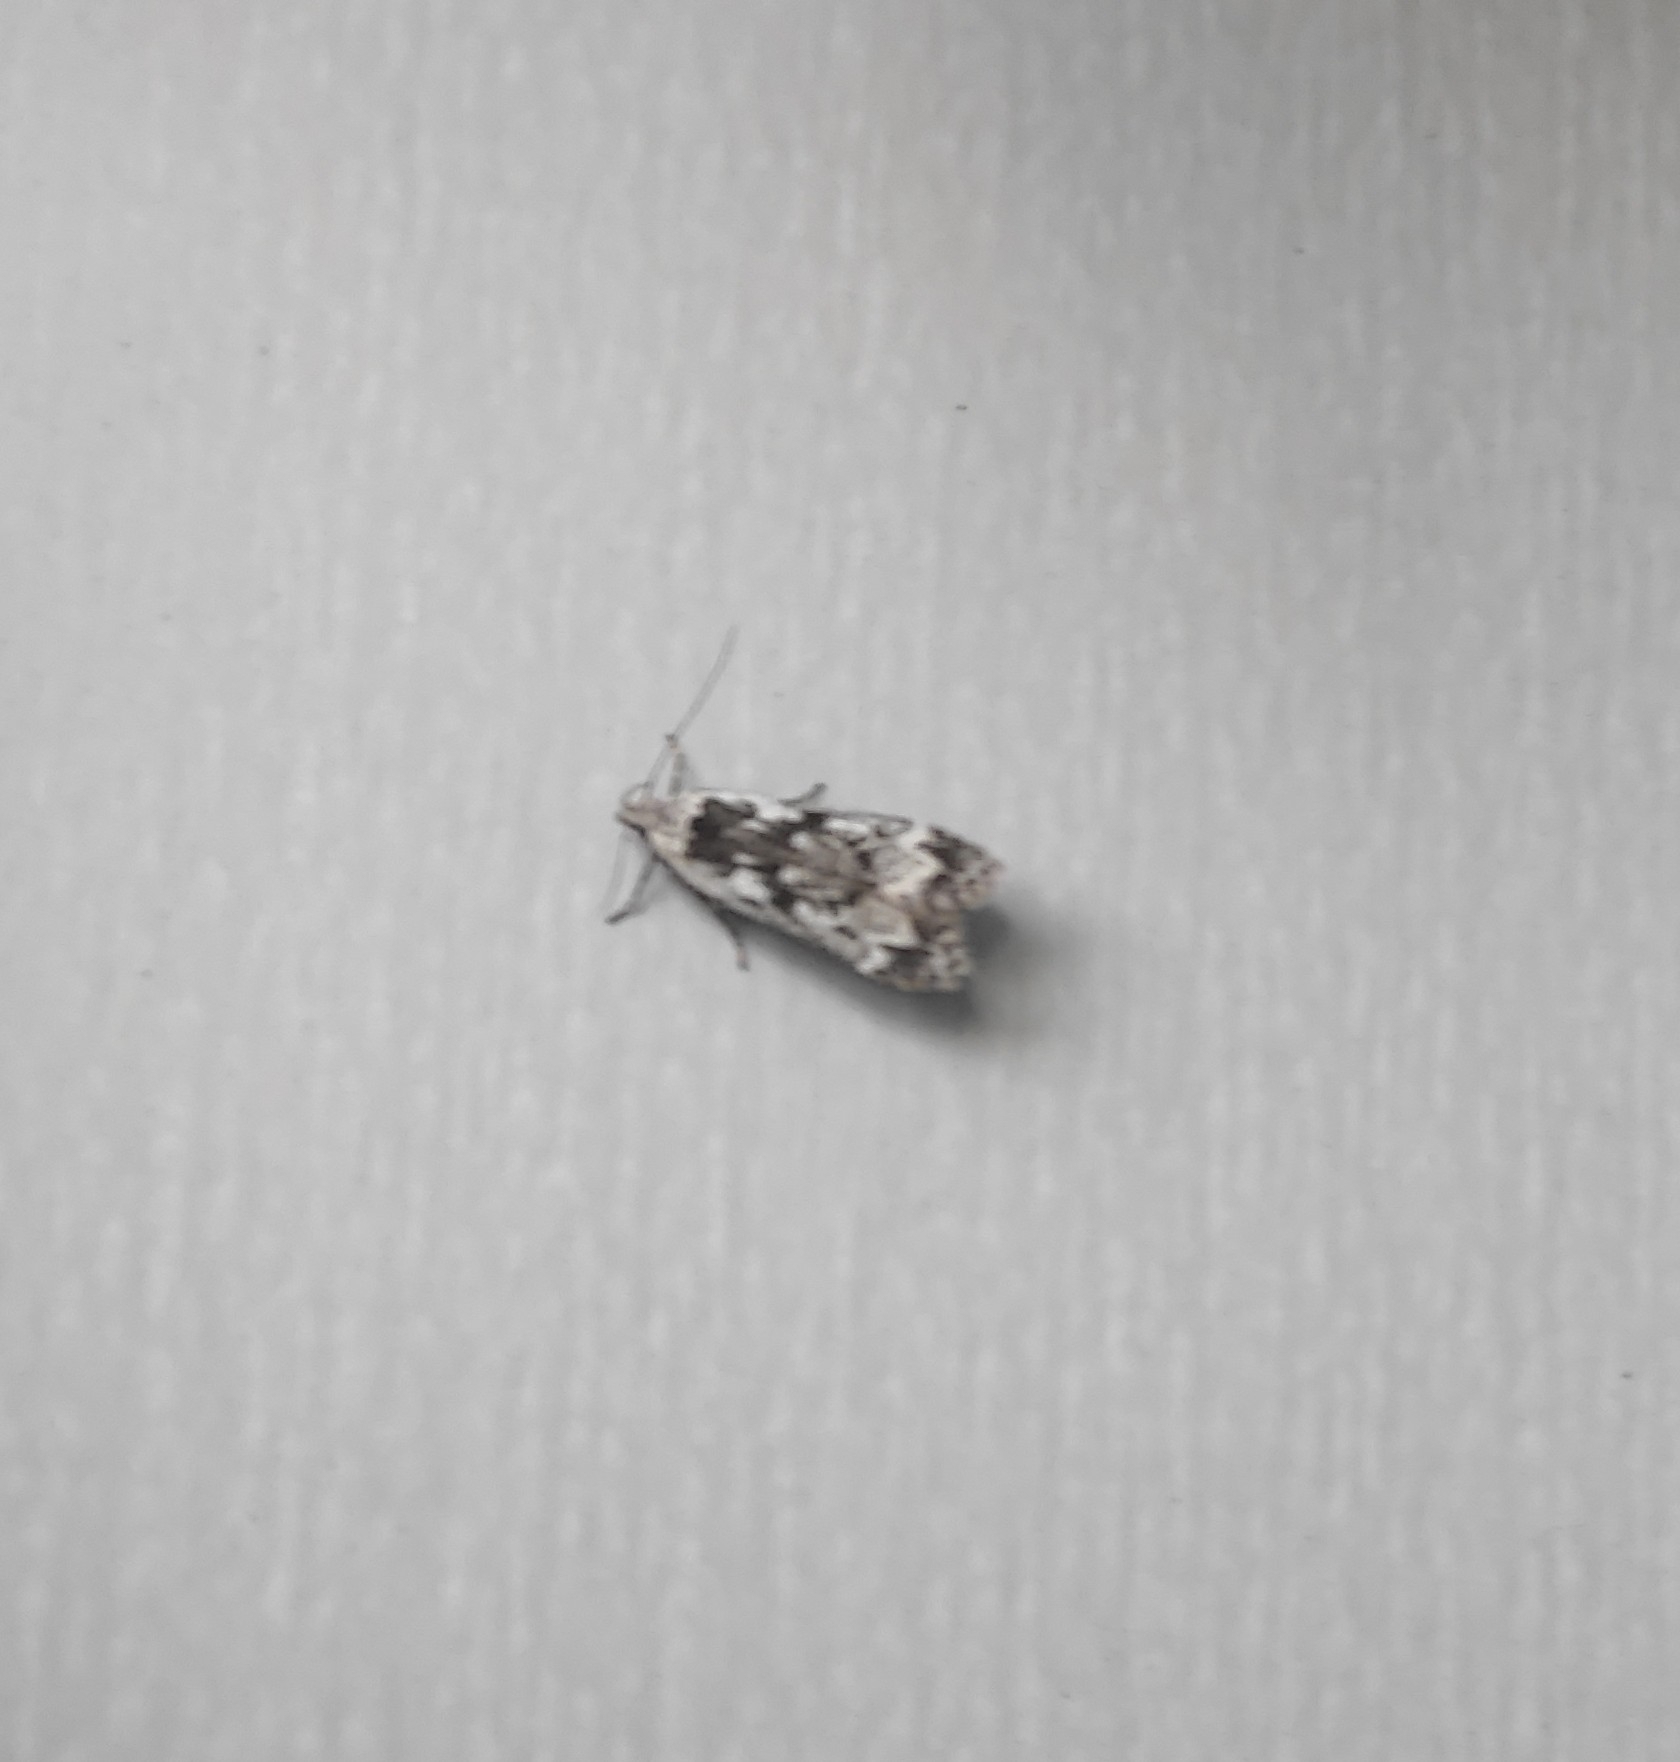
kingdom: Animalia
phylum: Arthropoda
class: Insecta
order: Lepidoptera
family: Gelechiidae
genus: Anacampsis
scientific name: Anacampsis blattariella
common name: Birch sober
